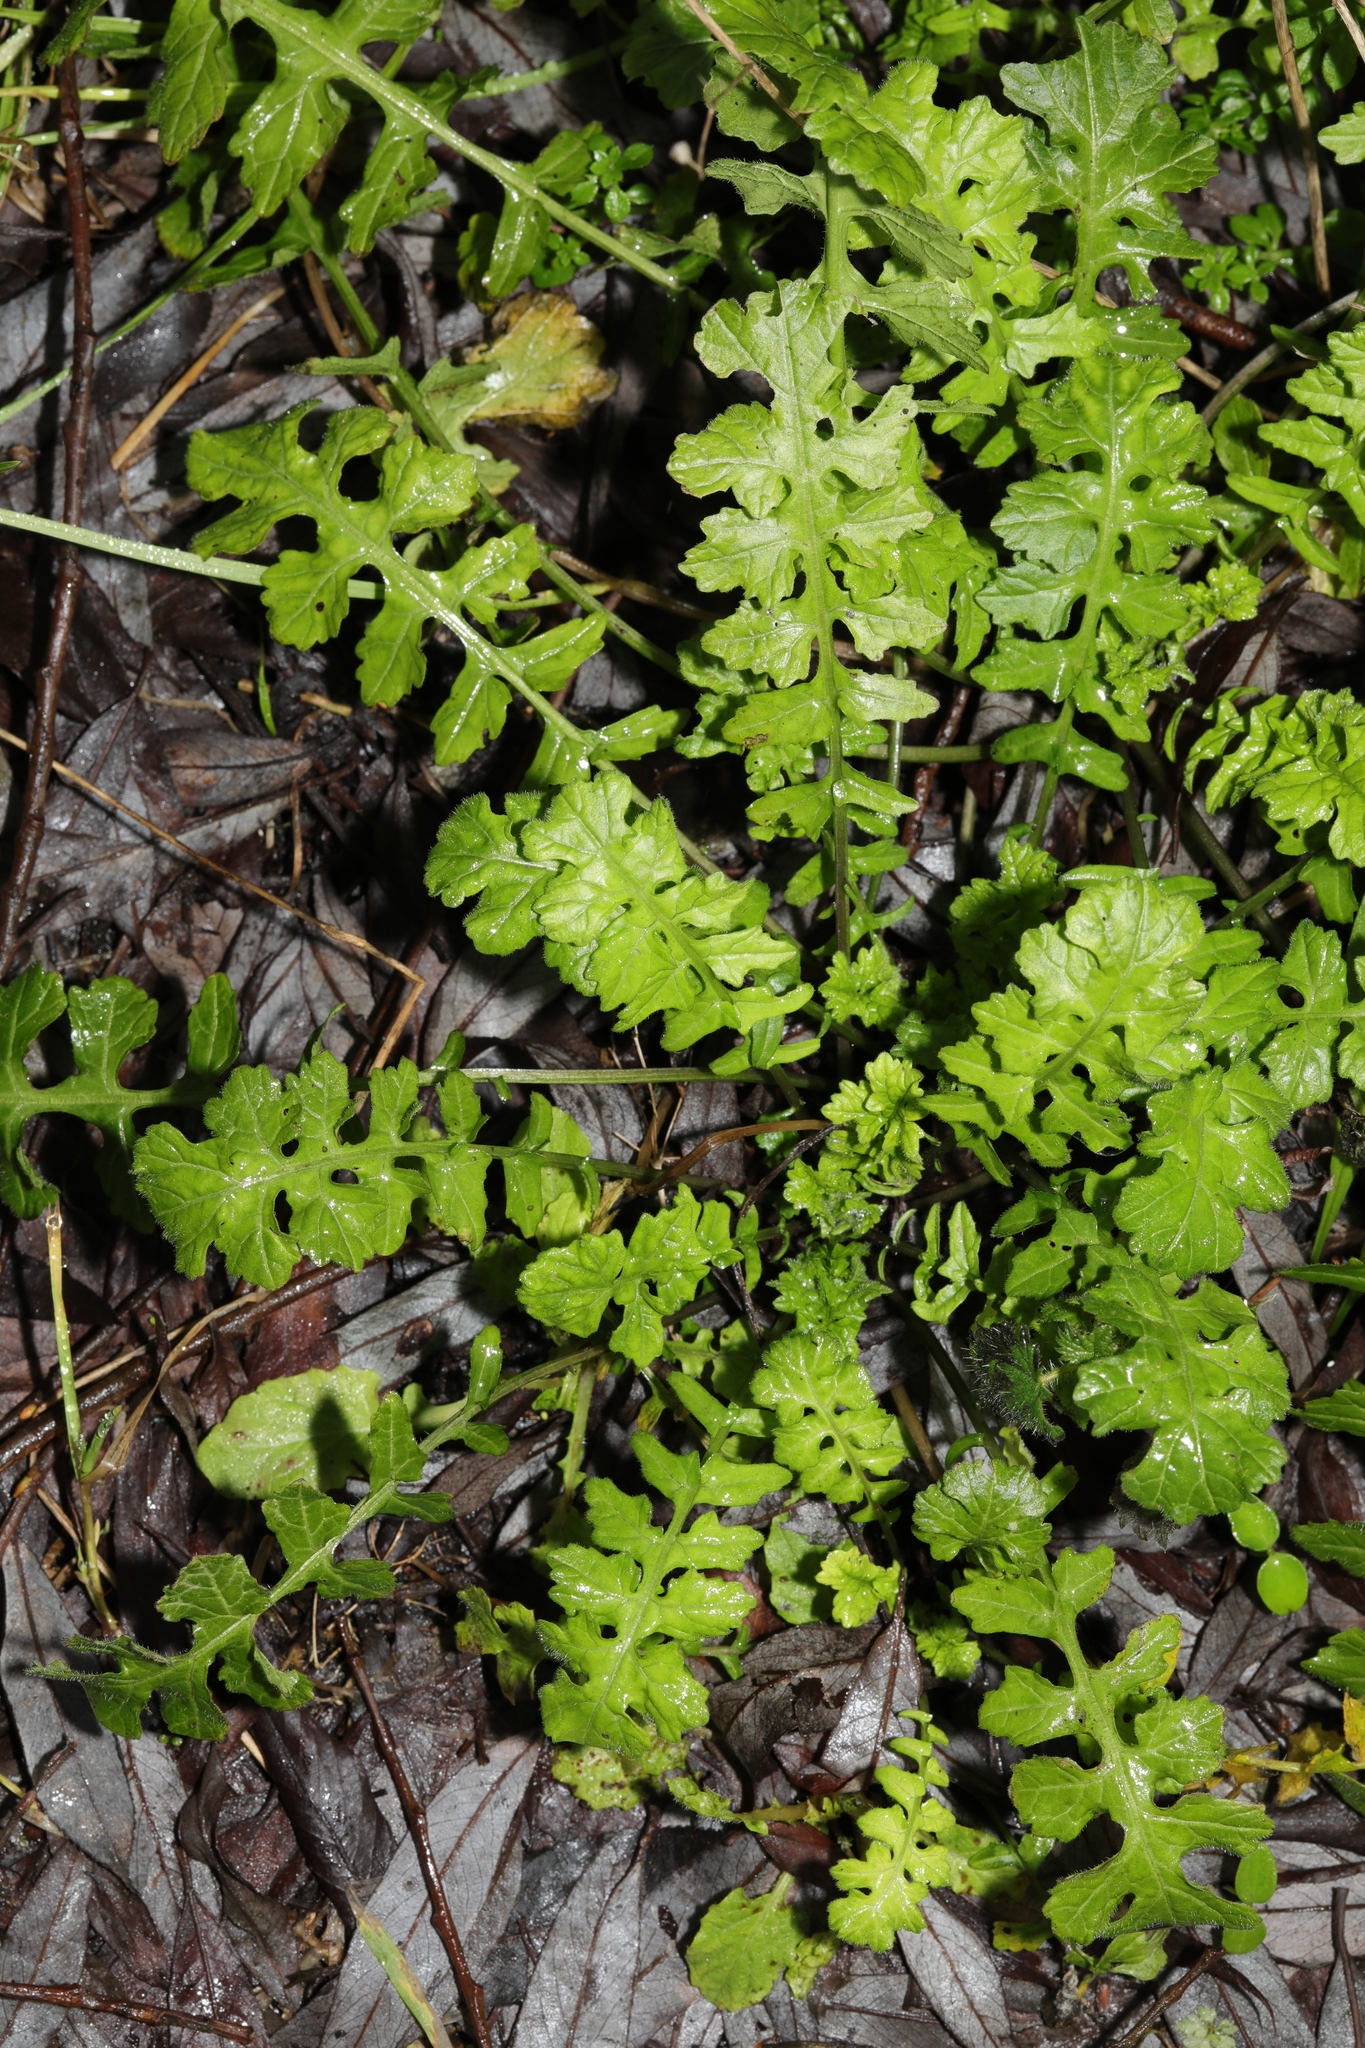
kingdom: Plantae
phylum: Tracheophyta
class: Magnoliopsida
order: Brassicales
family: Brassicaceae
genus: Sisymbrium
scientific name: Sisymbrium officinale
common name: Hedge mustard
